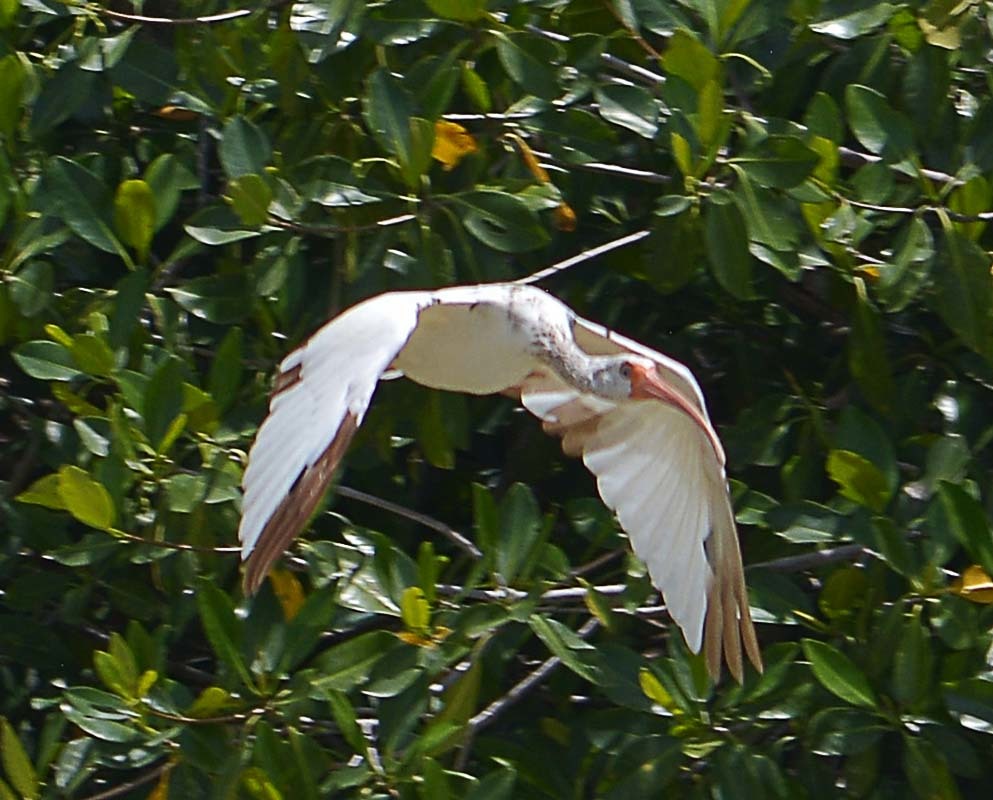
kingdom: Animalia
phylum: Chordata
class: Aves
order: Pelecaniformes
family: Threskiornithidae
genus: Eudocimus
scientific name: Eudocimus albus
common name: White ibis
